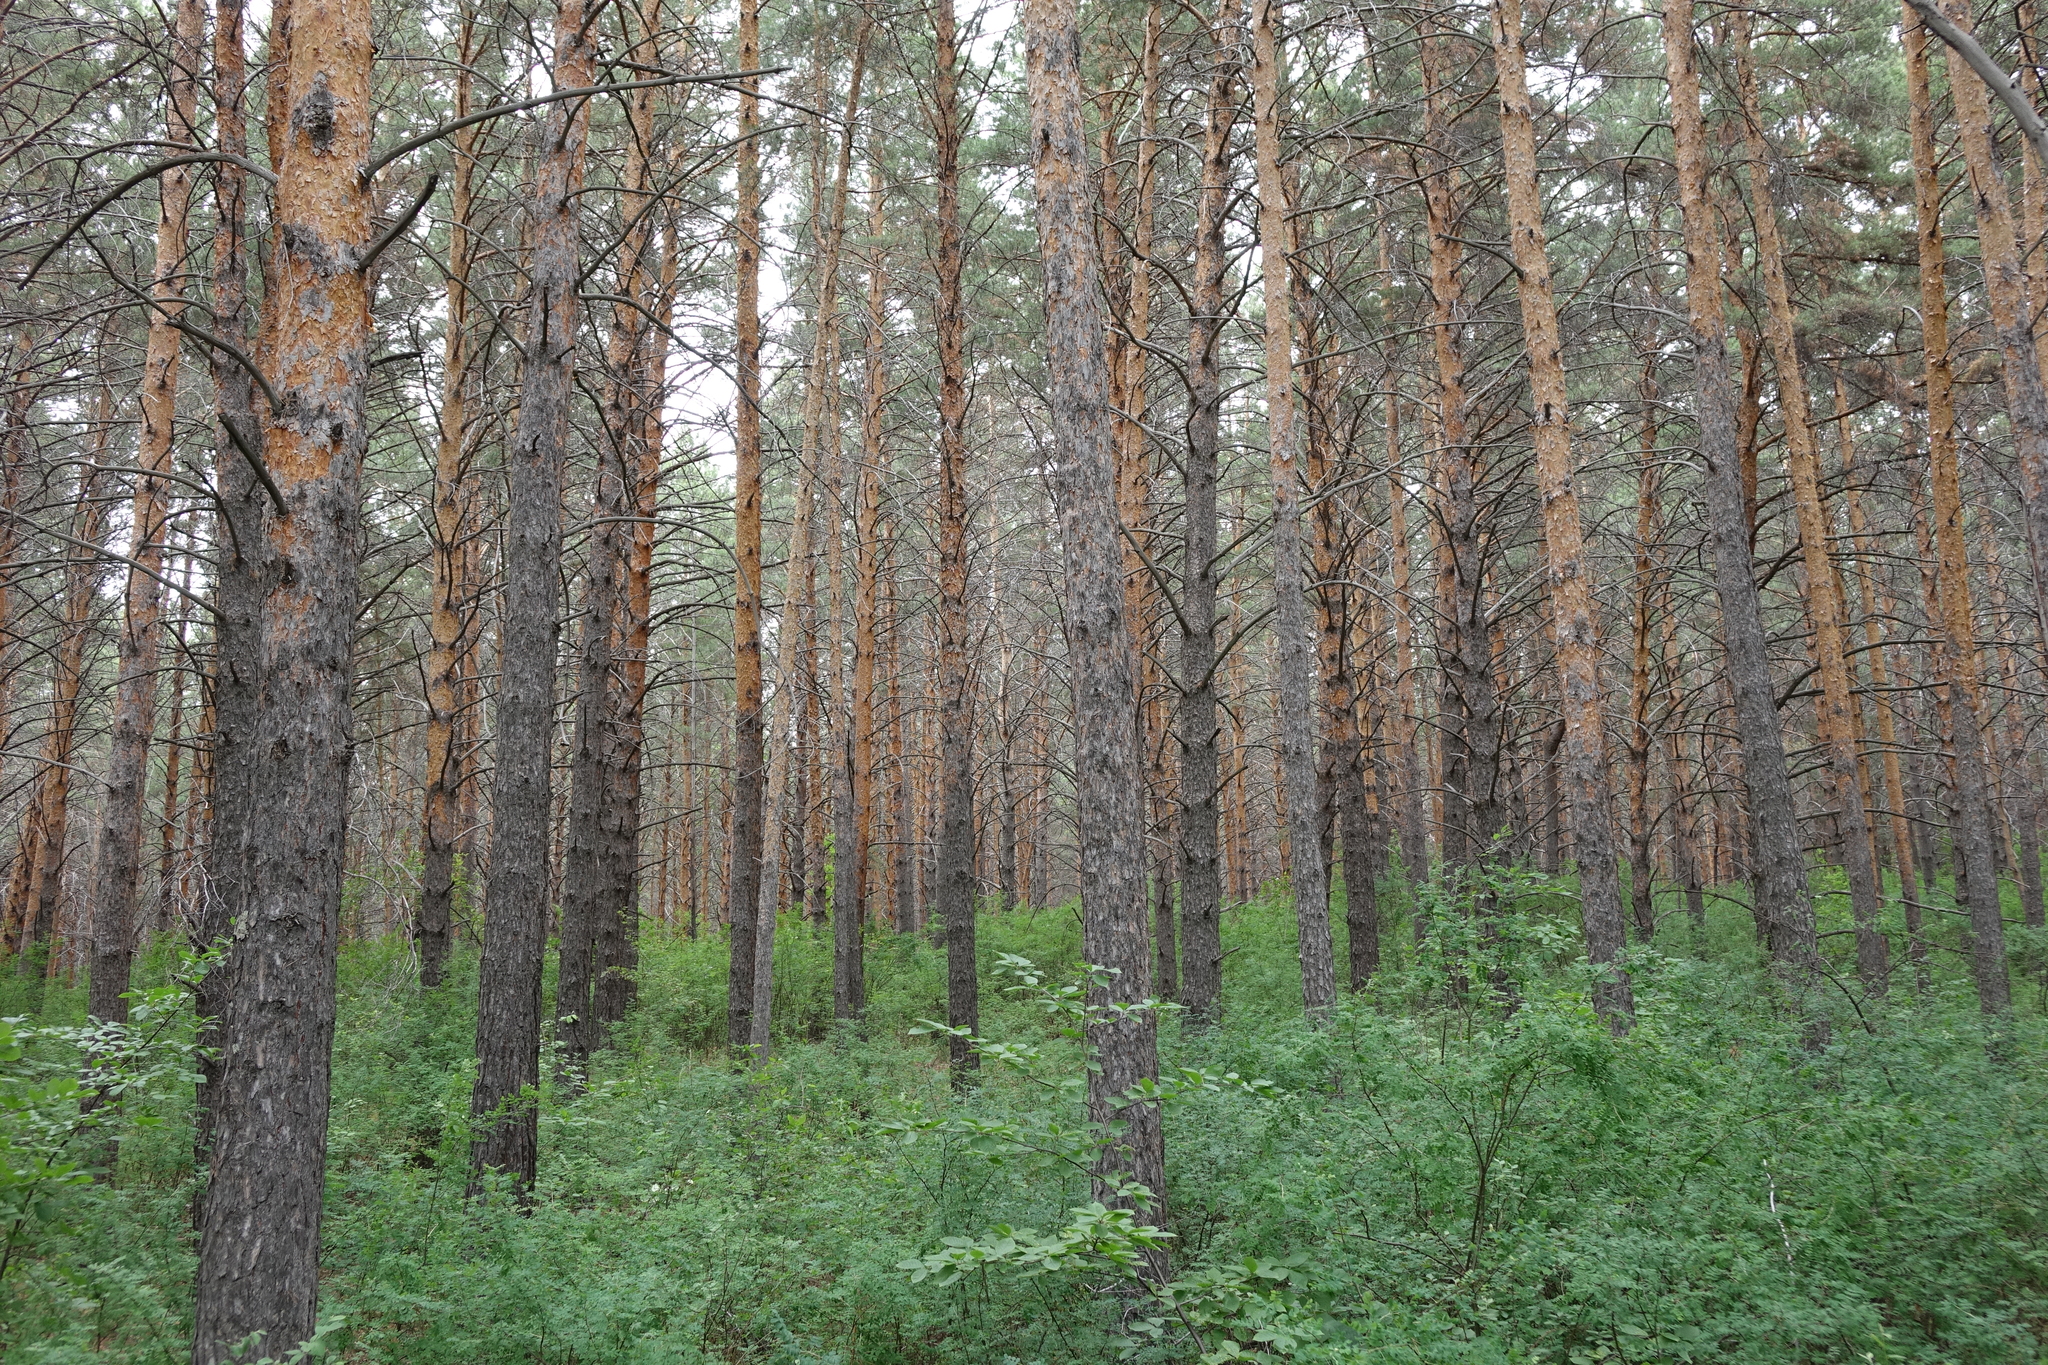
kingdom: Plantae
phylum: Tracheophyta
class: Pinopsida
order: Pinales
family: Pinaceae
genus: Pinus
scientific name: Pinus sylvestris
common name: Scots pine
